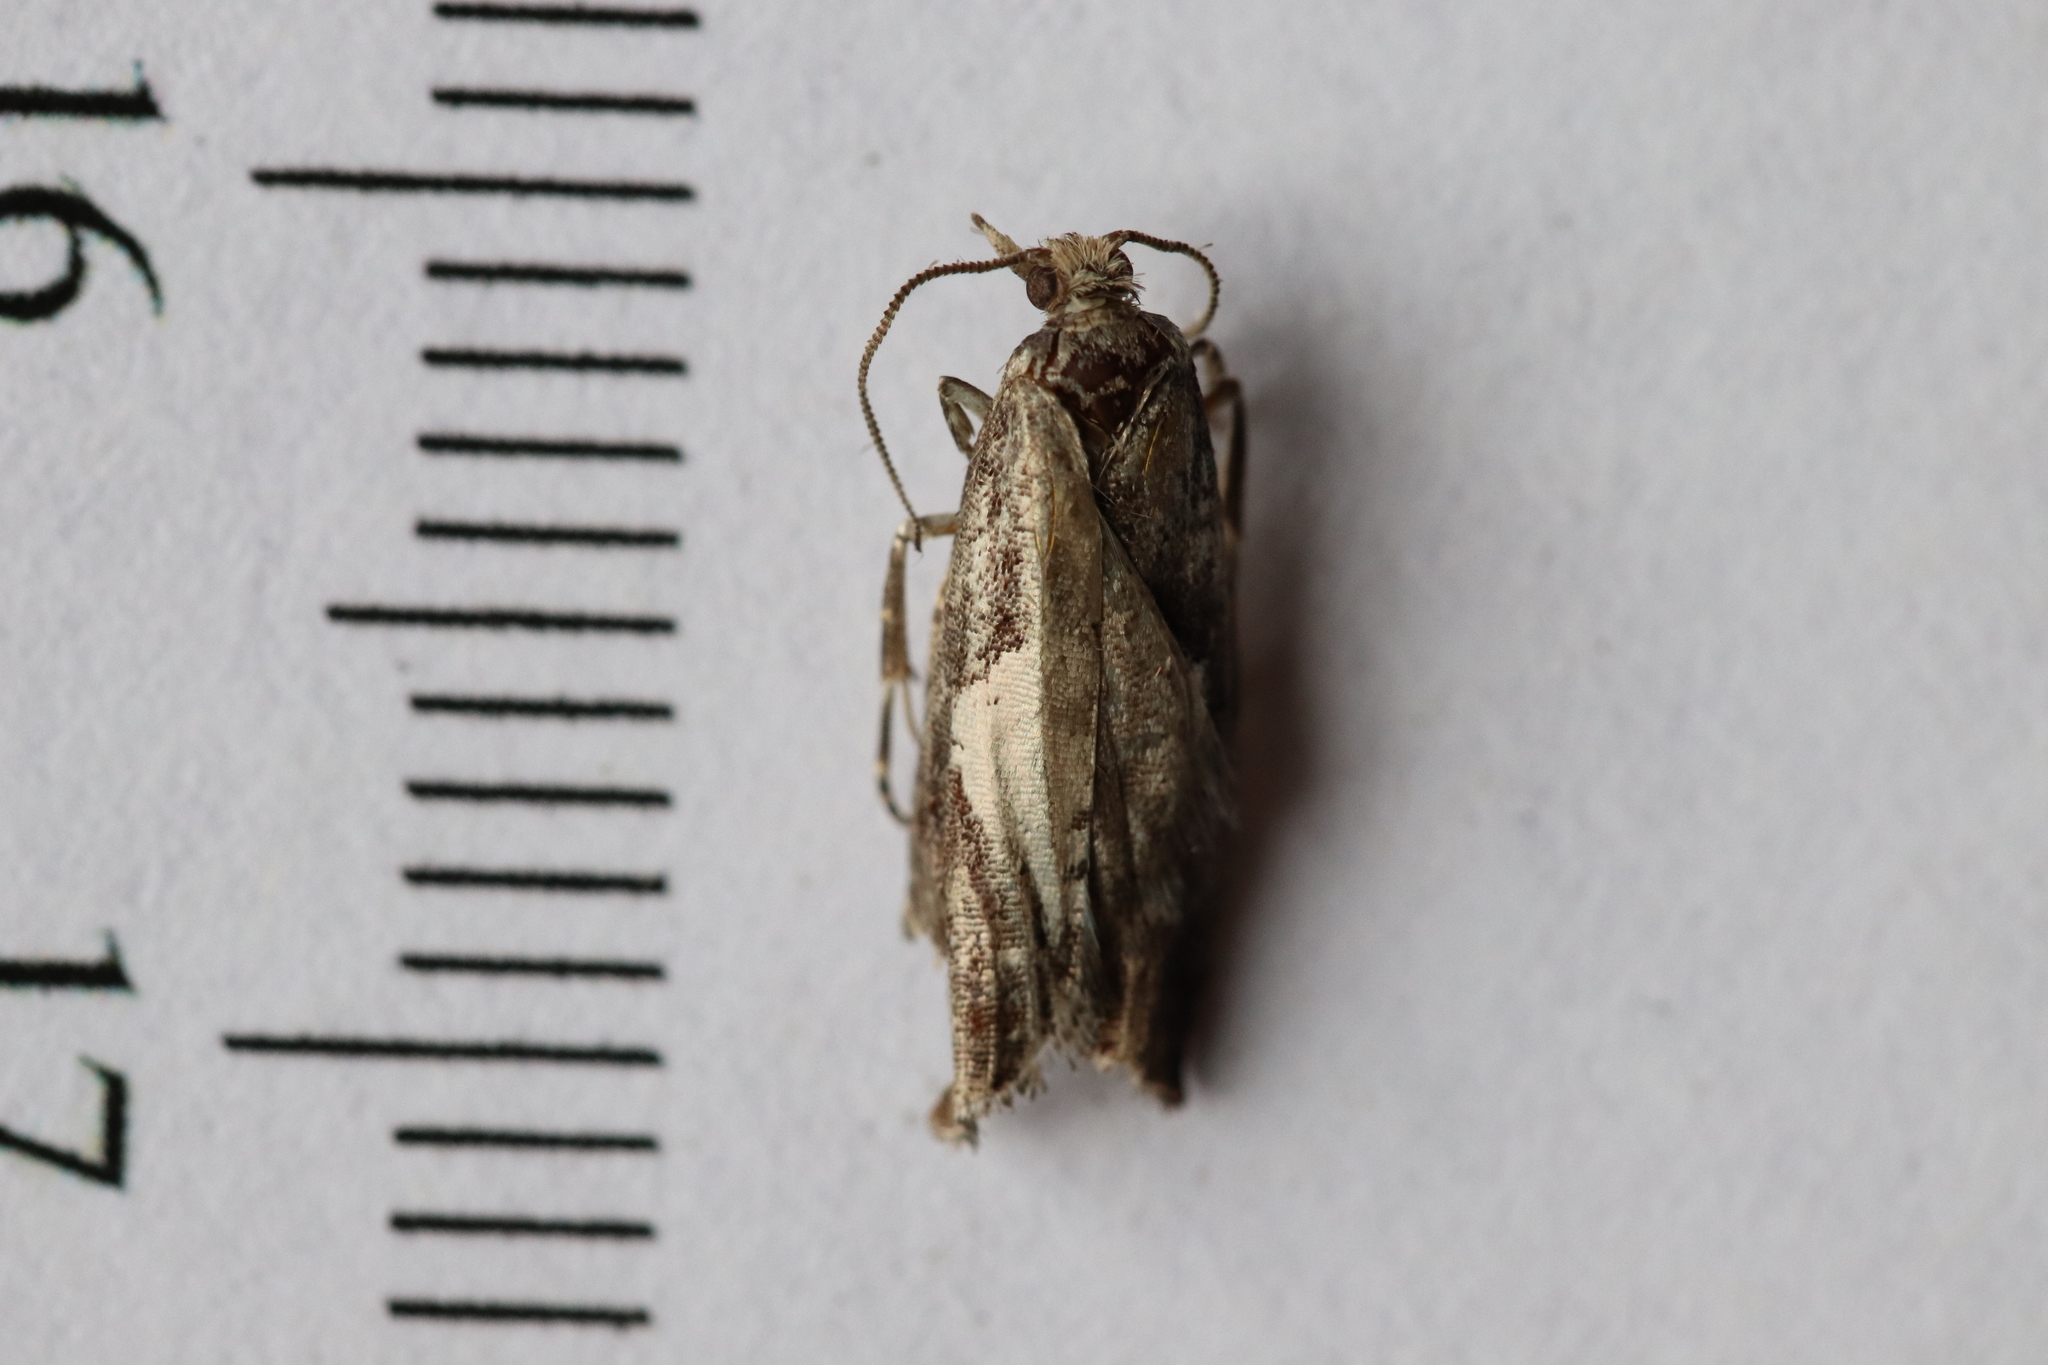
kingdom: Animalia
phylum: Arthropoda
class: Insecta
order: Lepidoptera
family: Tortricidae
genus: Epinotia
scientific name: Epinotia solandriana
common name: Variable bell
